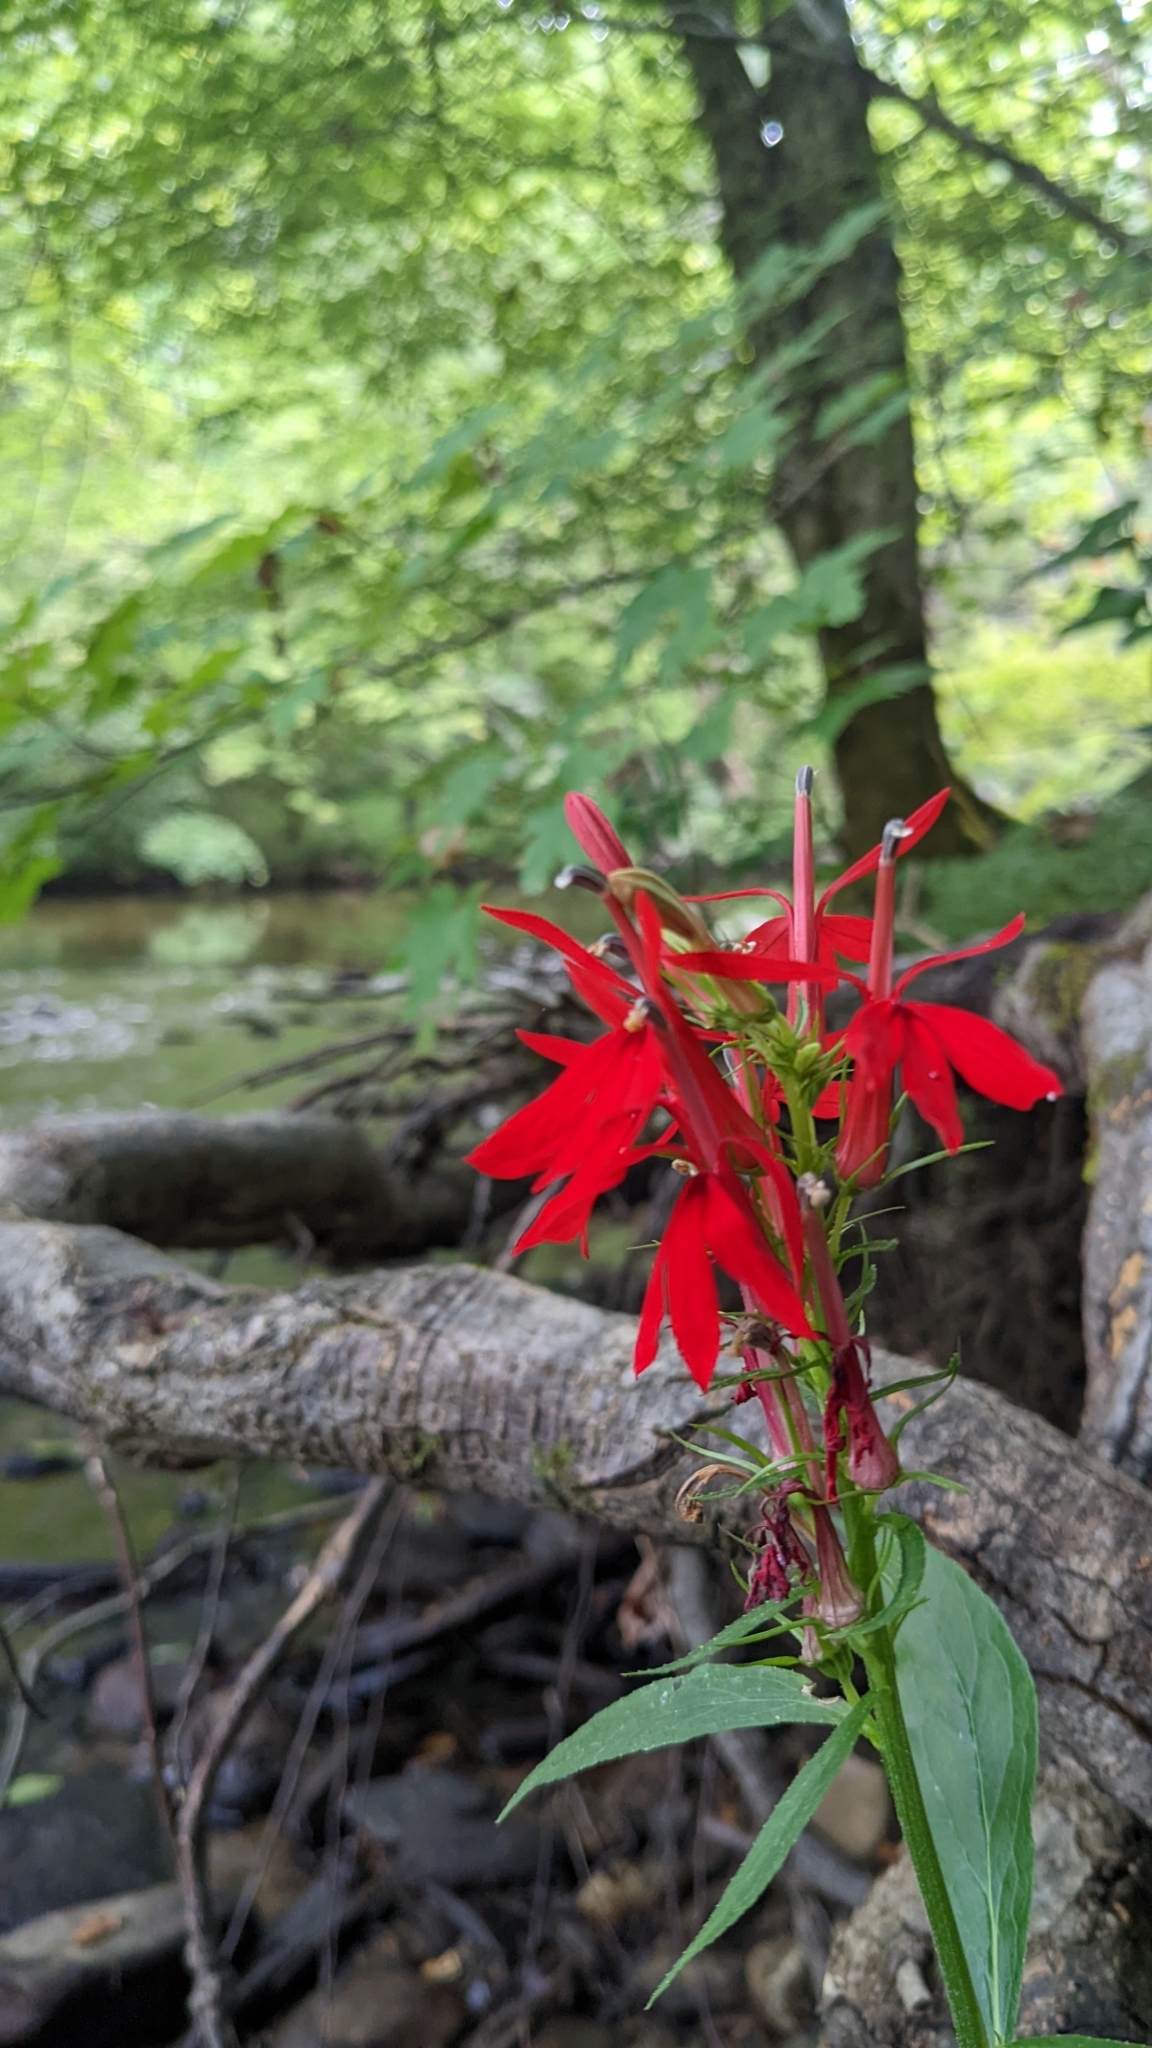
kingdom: Plantae
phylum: Tracheophyta
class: Magnoliopsida
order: Asterales
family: Campanulaceae
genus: Lobelia
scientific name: Lobelia cardinalis
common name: Cardinal flower
